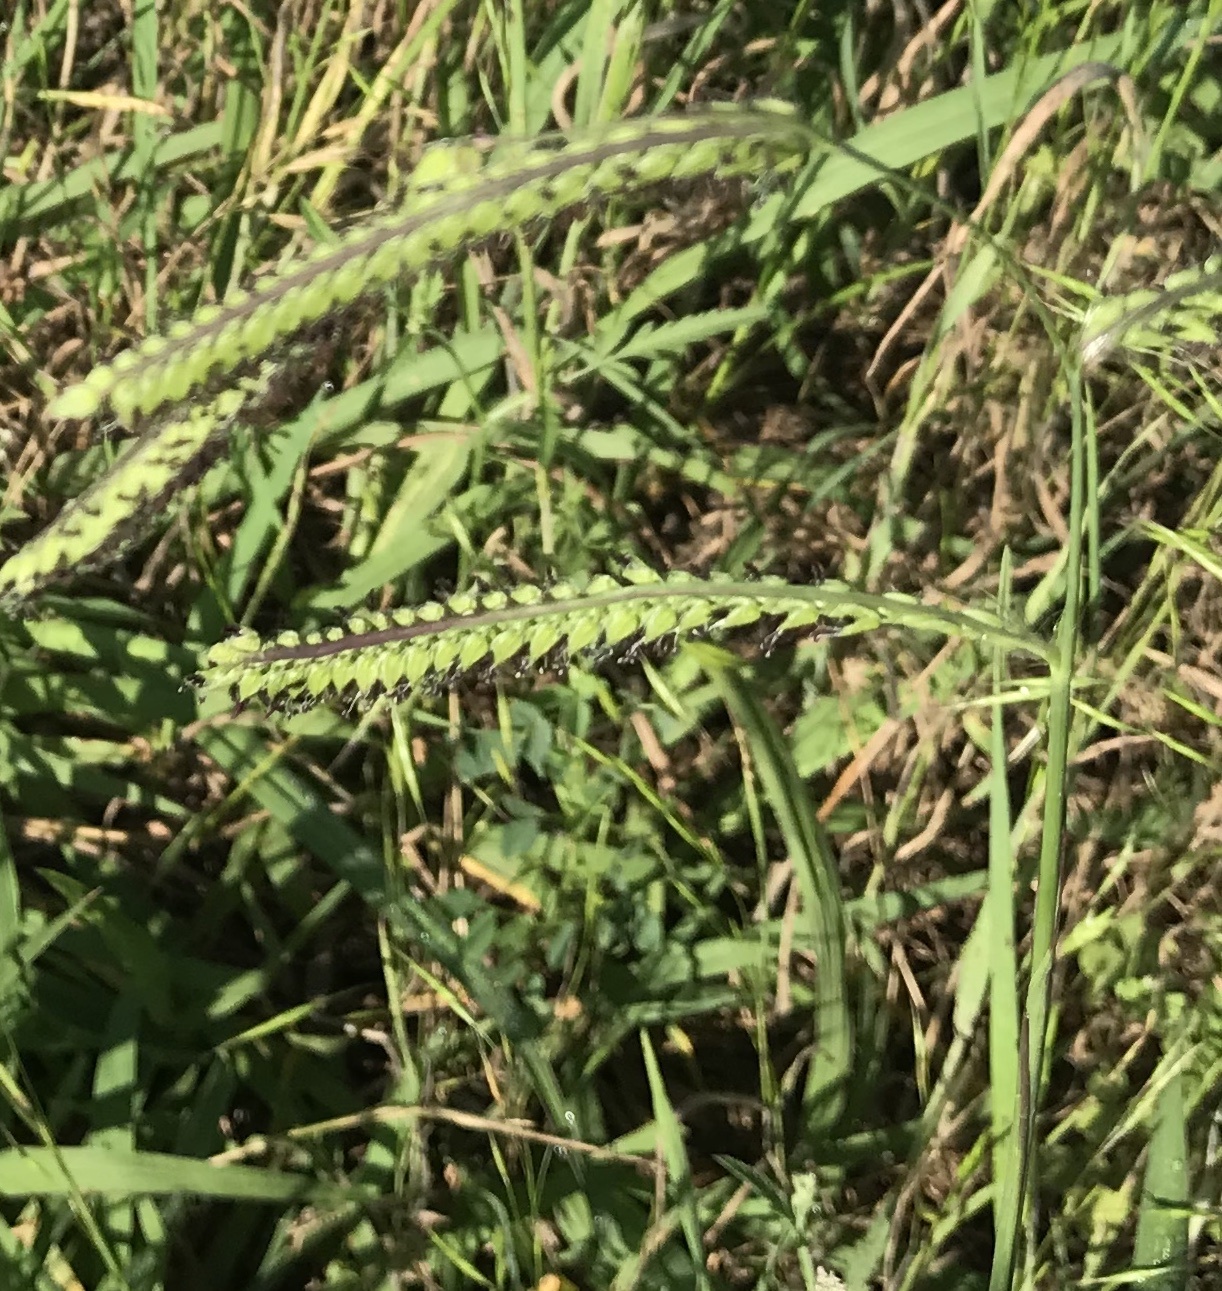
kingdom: Plantae
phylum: Tracheophyta
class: Liliopsida
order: Poales
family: Poaceae
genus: Paspalum
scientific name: Paspalum dilatatum
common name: Dallisgrass
